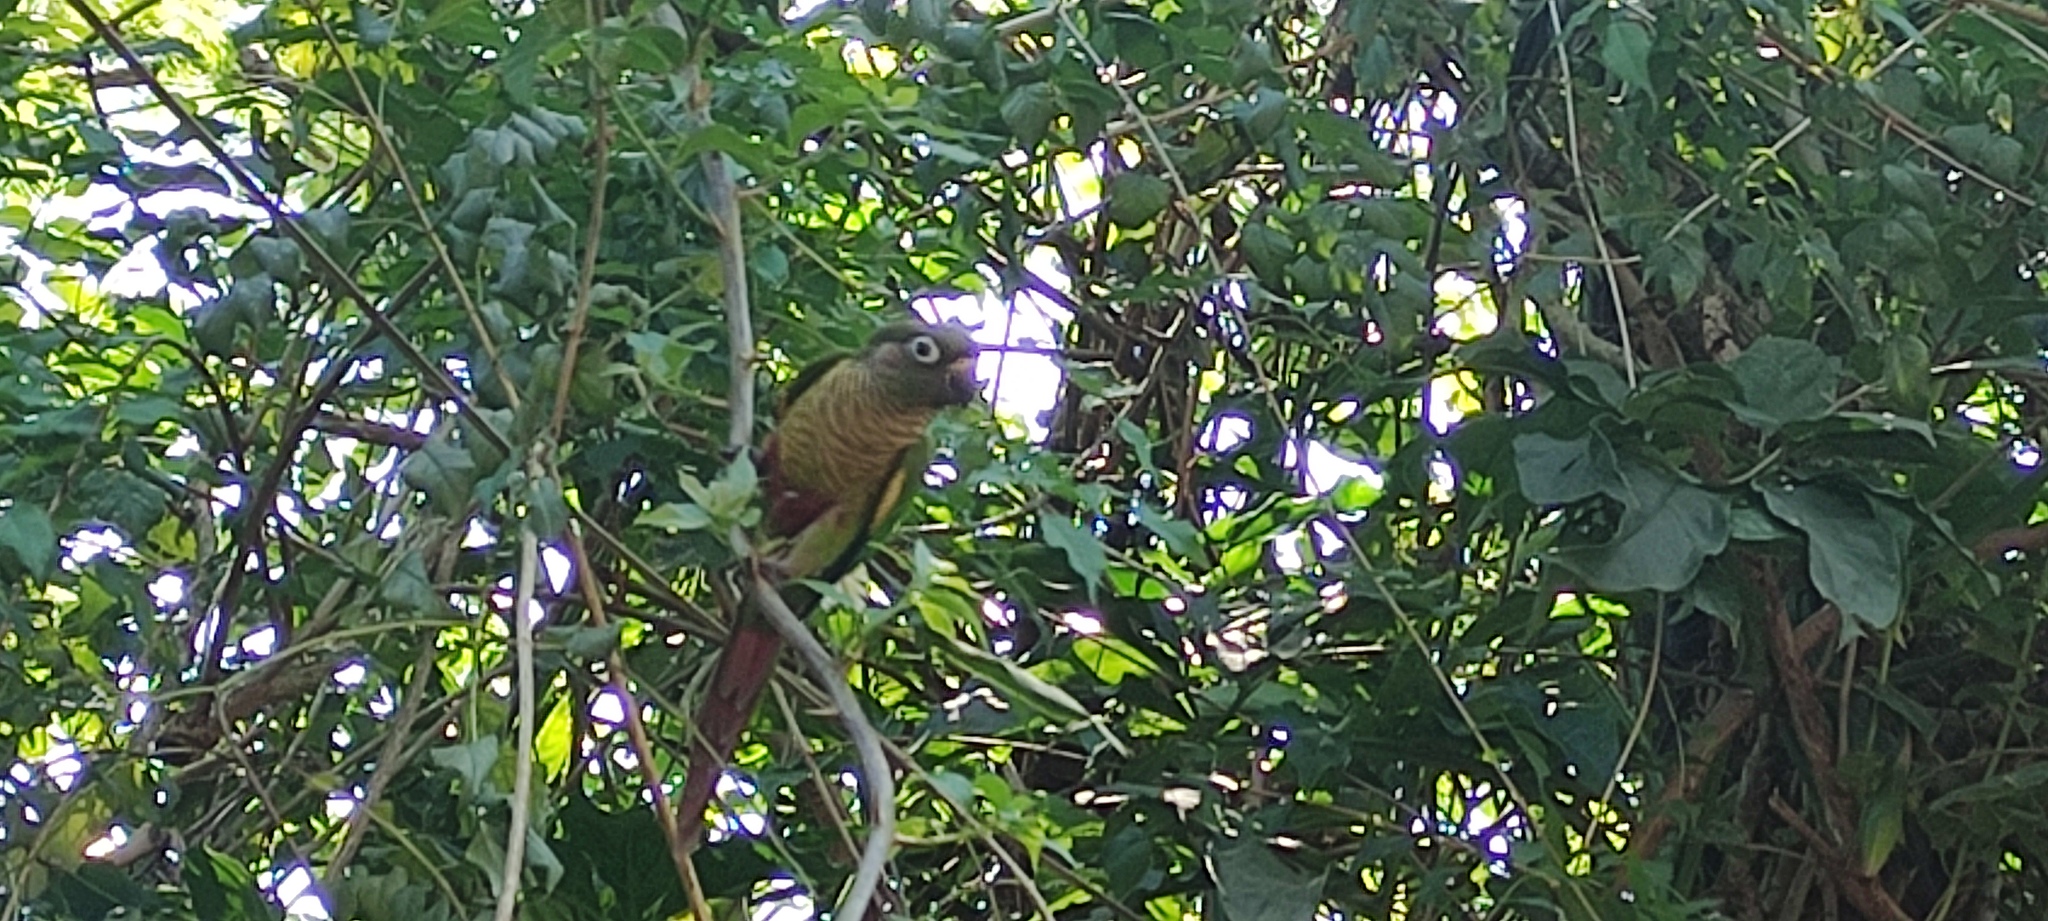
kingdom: Animalia
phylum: Chordata
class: Aves
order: Psittaciformes
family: Psittacidae
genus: Pyrrhura
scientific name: Pyrrhura frontalis
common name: Maroon-bellied parakeet
